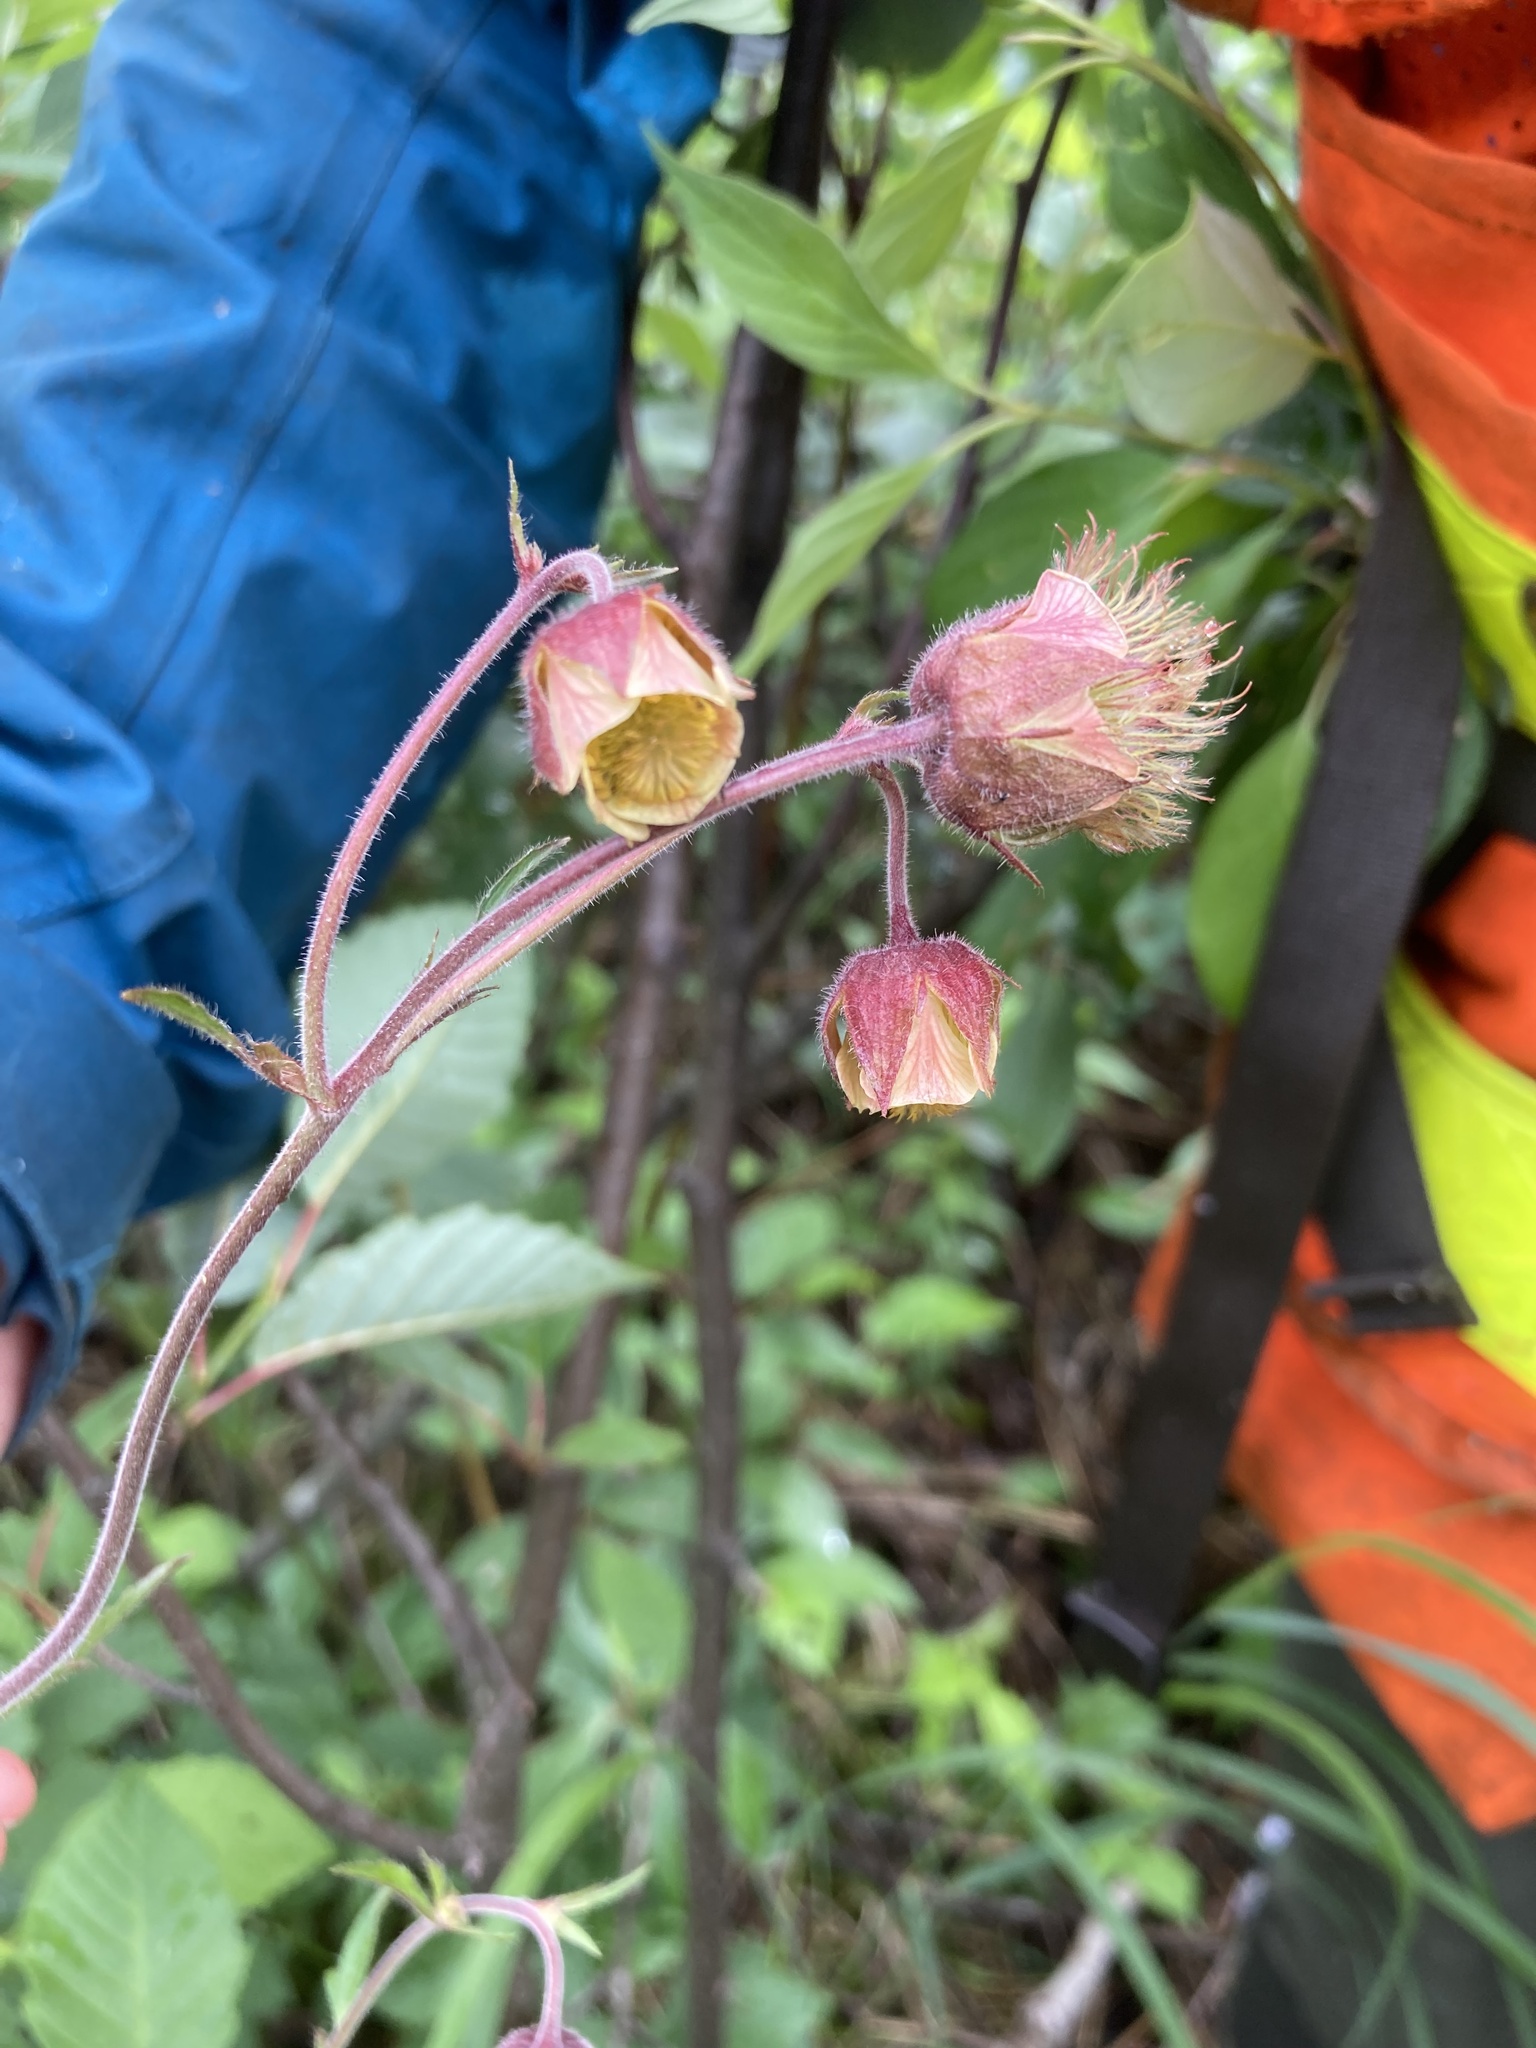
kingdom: Plantae
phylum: Tracheophyta
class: Magnoliopsida
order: Rosales
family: Rosaceae
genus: Geum
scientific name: Geum rivale
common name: Water avens
